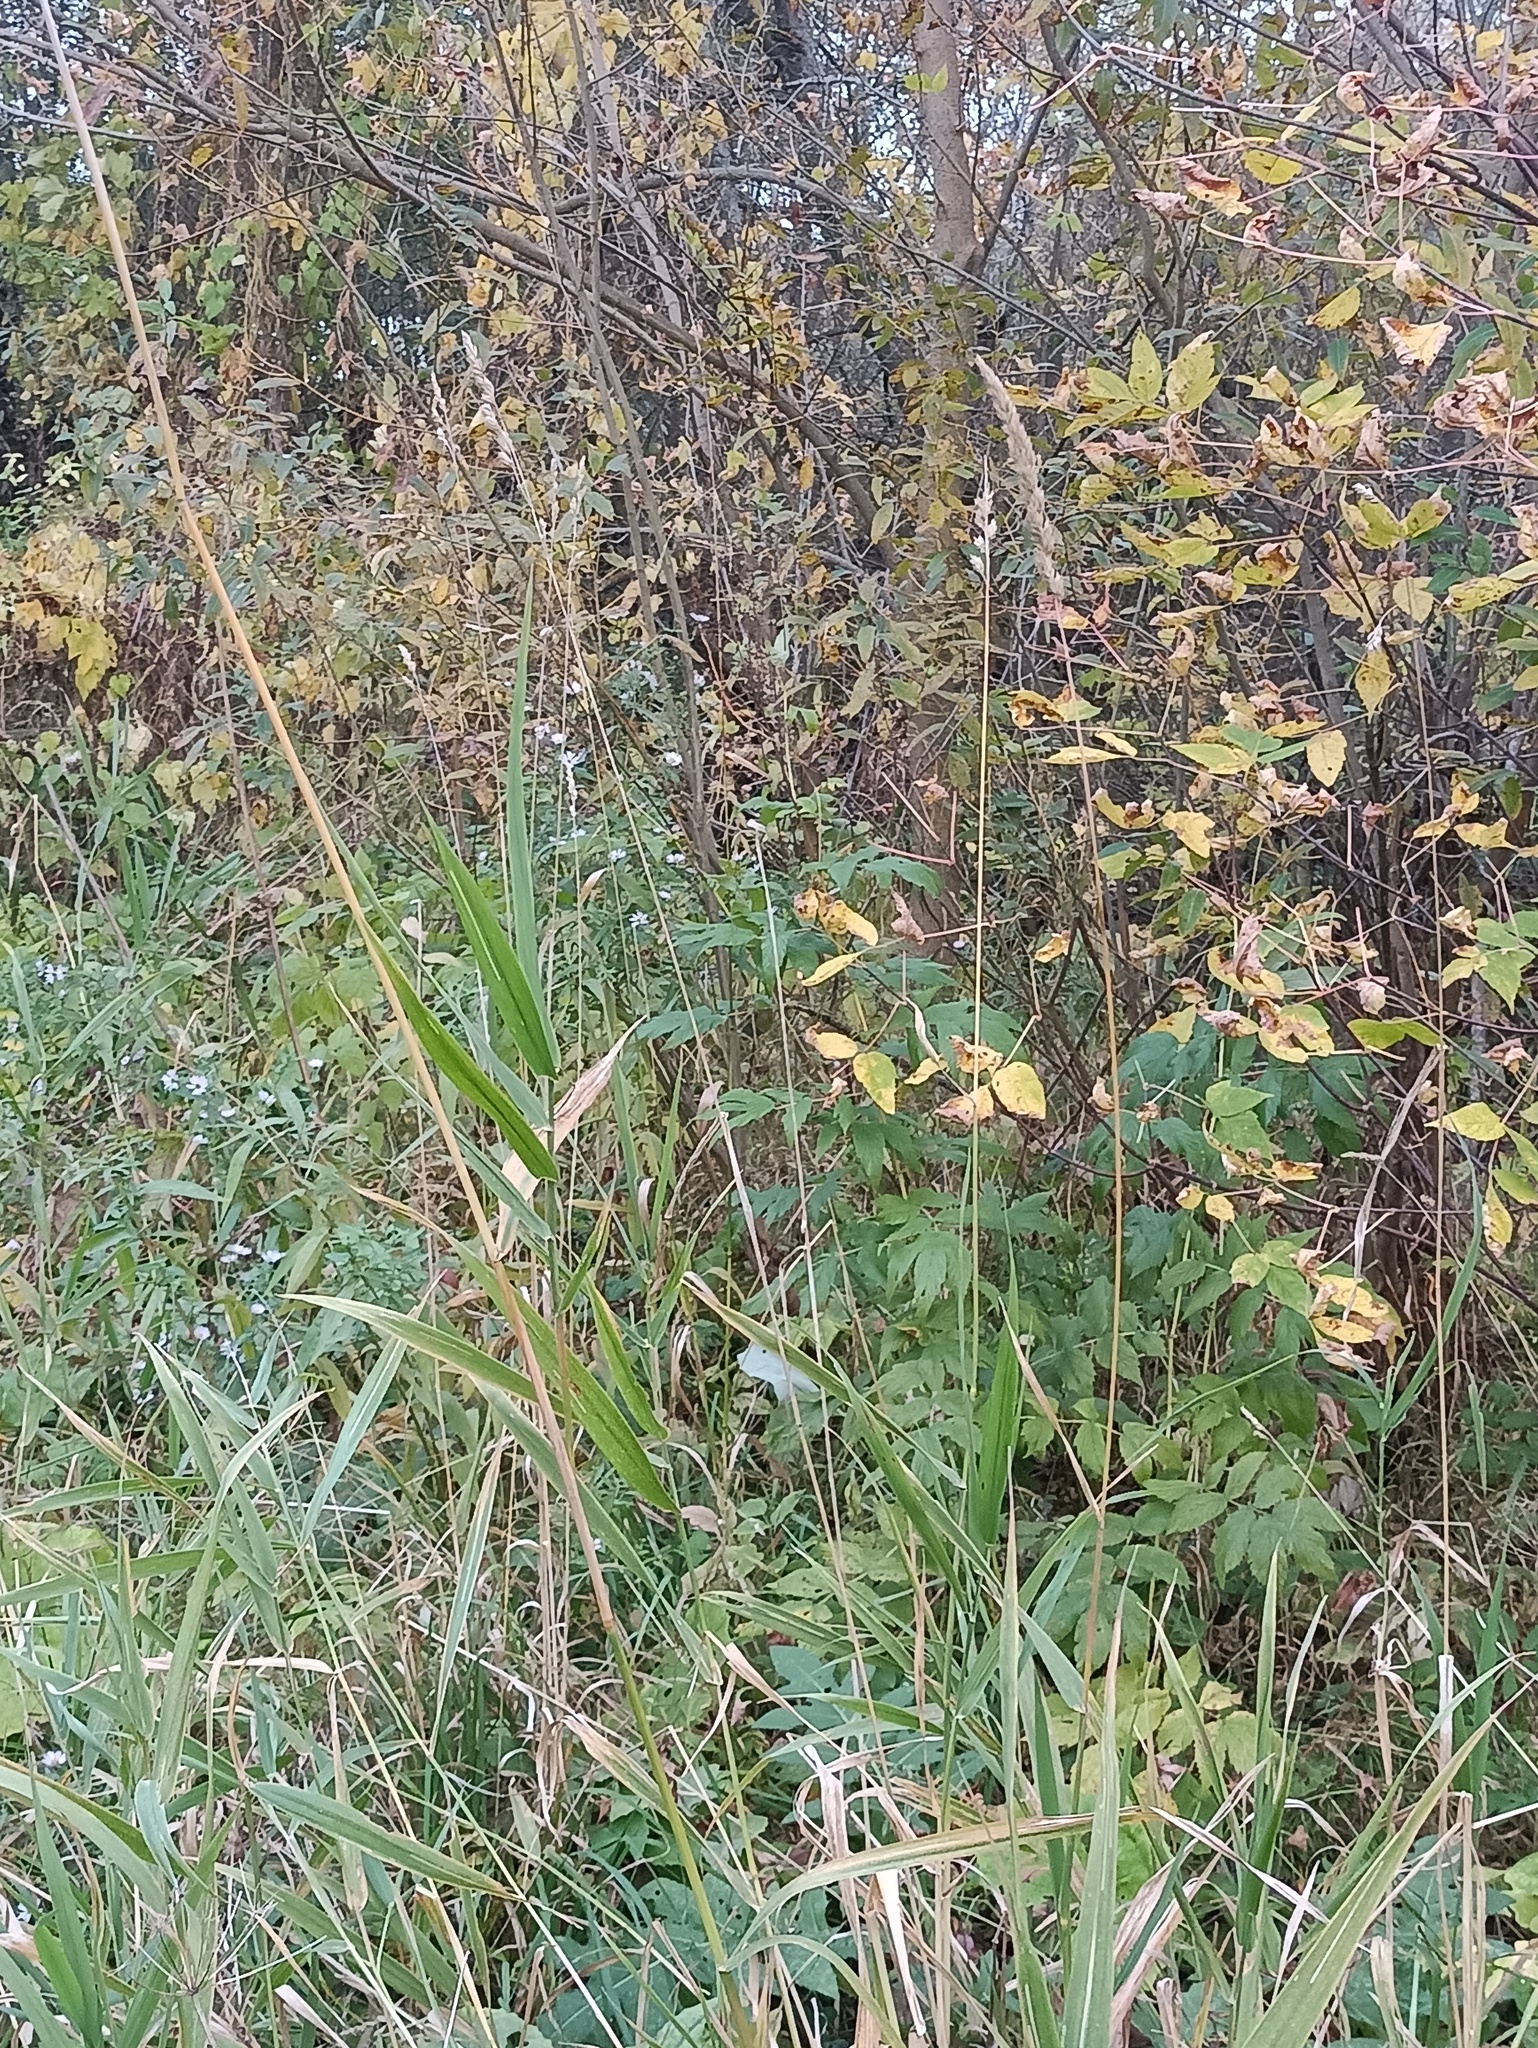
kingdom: Plantae
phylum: Tracheophyta
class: Liliopsida
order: Poales
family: Poaceae
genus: Phalaris
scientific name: Phalaris arundinacea
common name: Reed canary-grass
